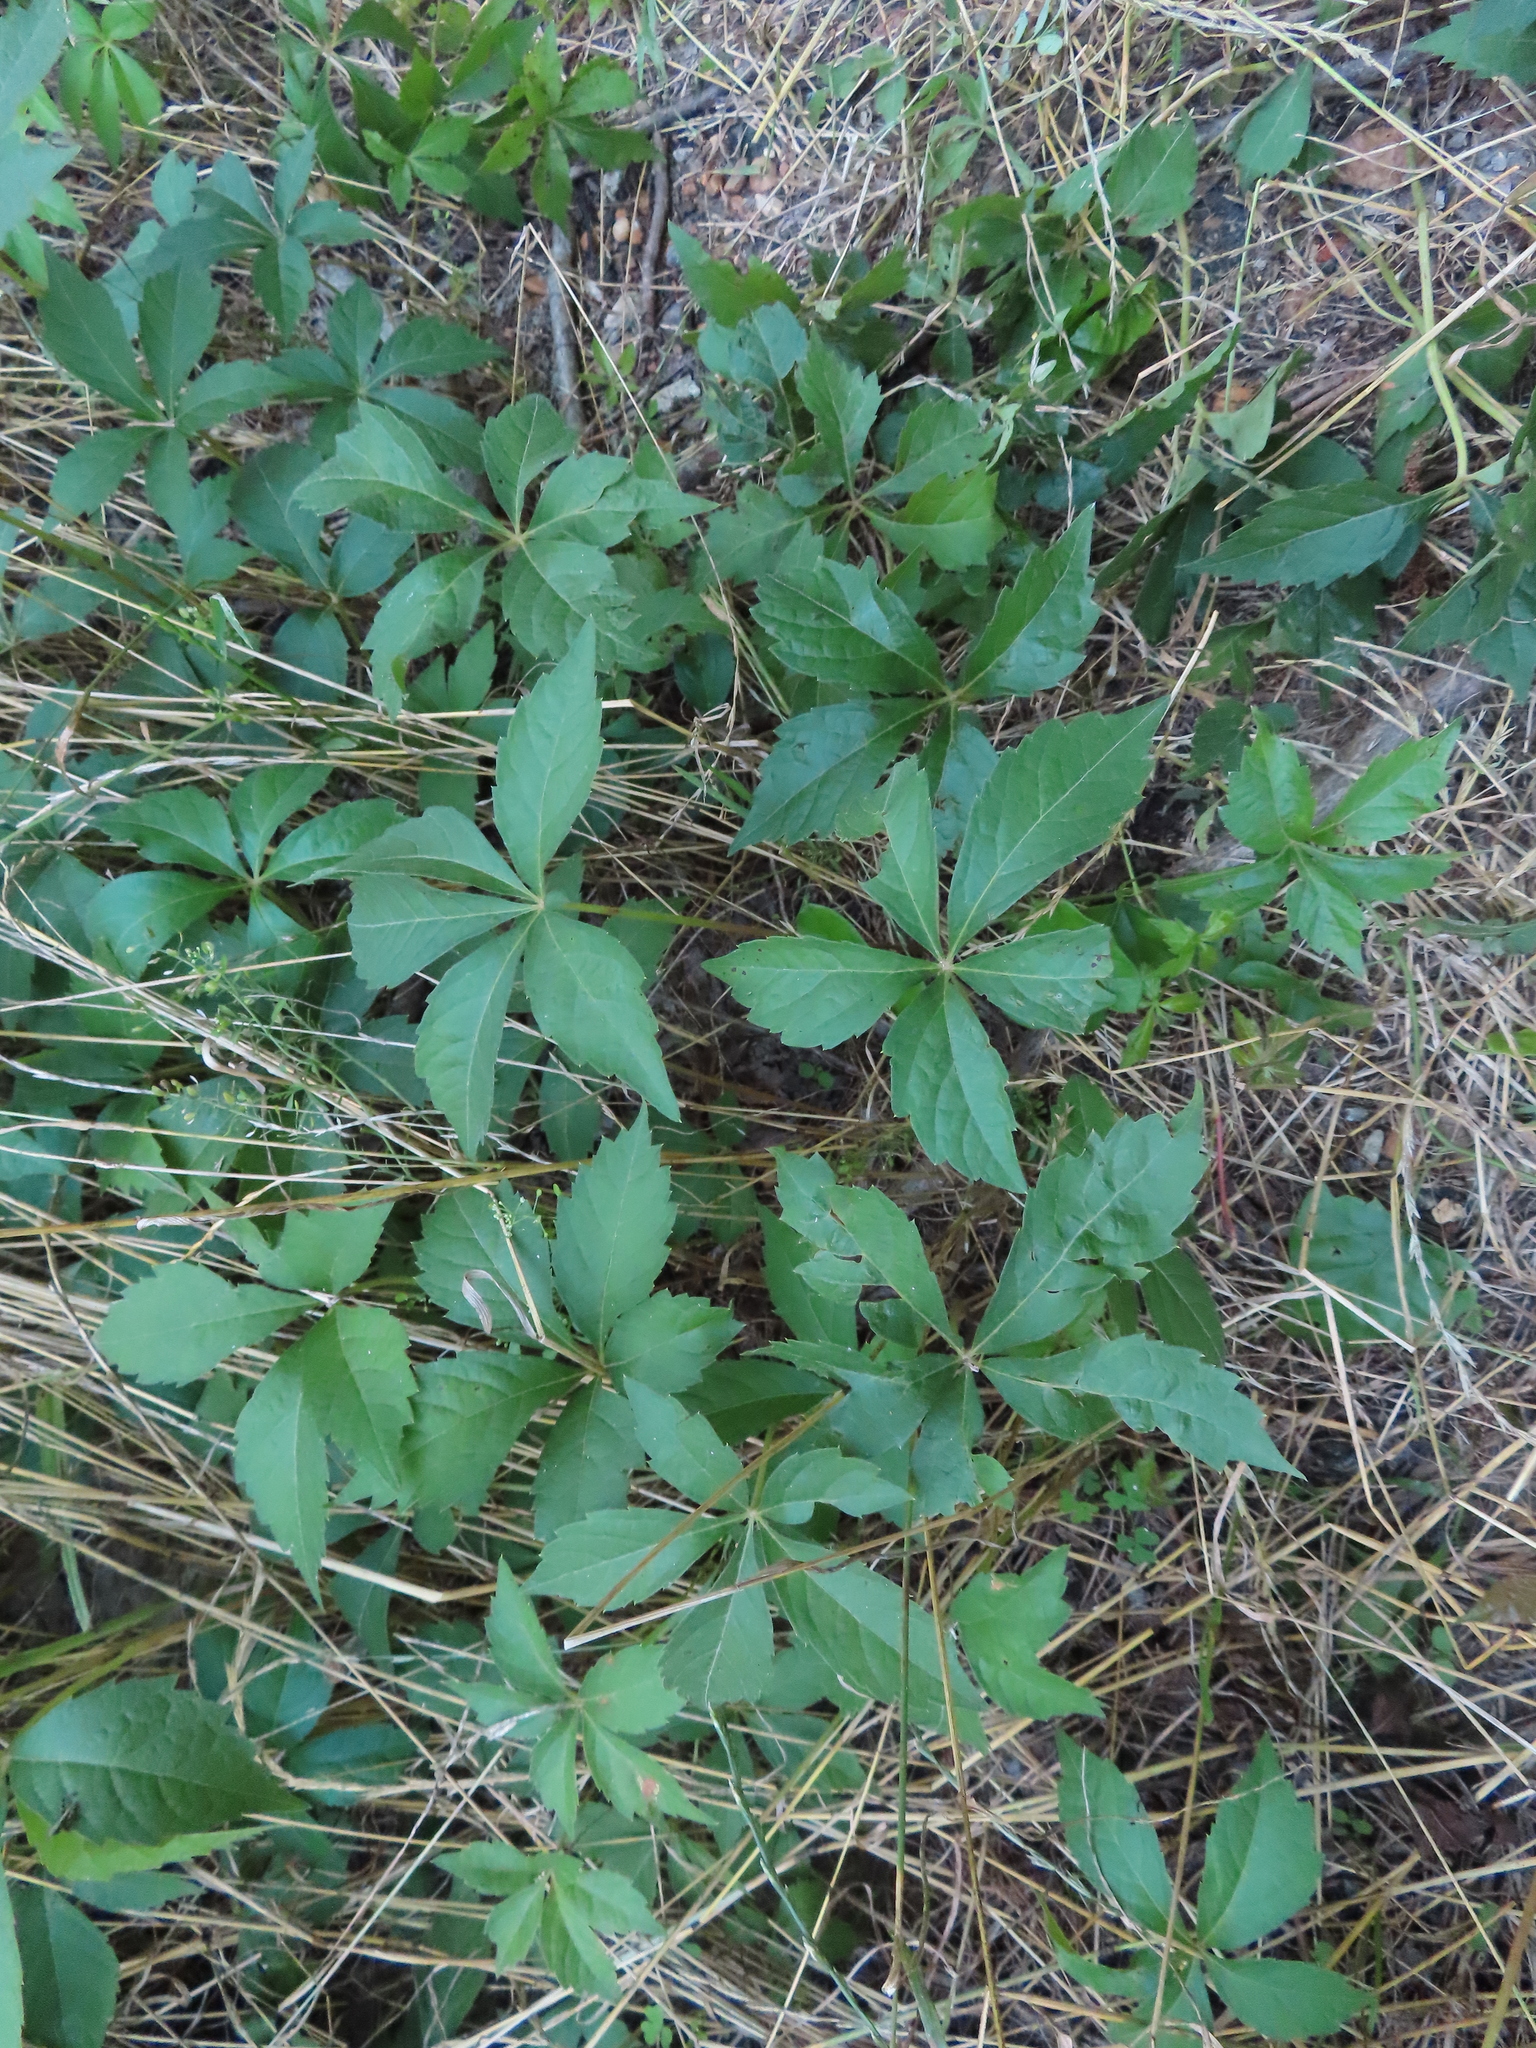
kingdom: Plantae
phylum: Tracheophyta
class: Magnoliopsida
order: Vitales
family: Vitaceae
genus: Parthenocissus
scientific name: Parthenocissus quinquefolia
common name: Virginia-creeper
